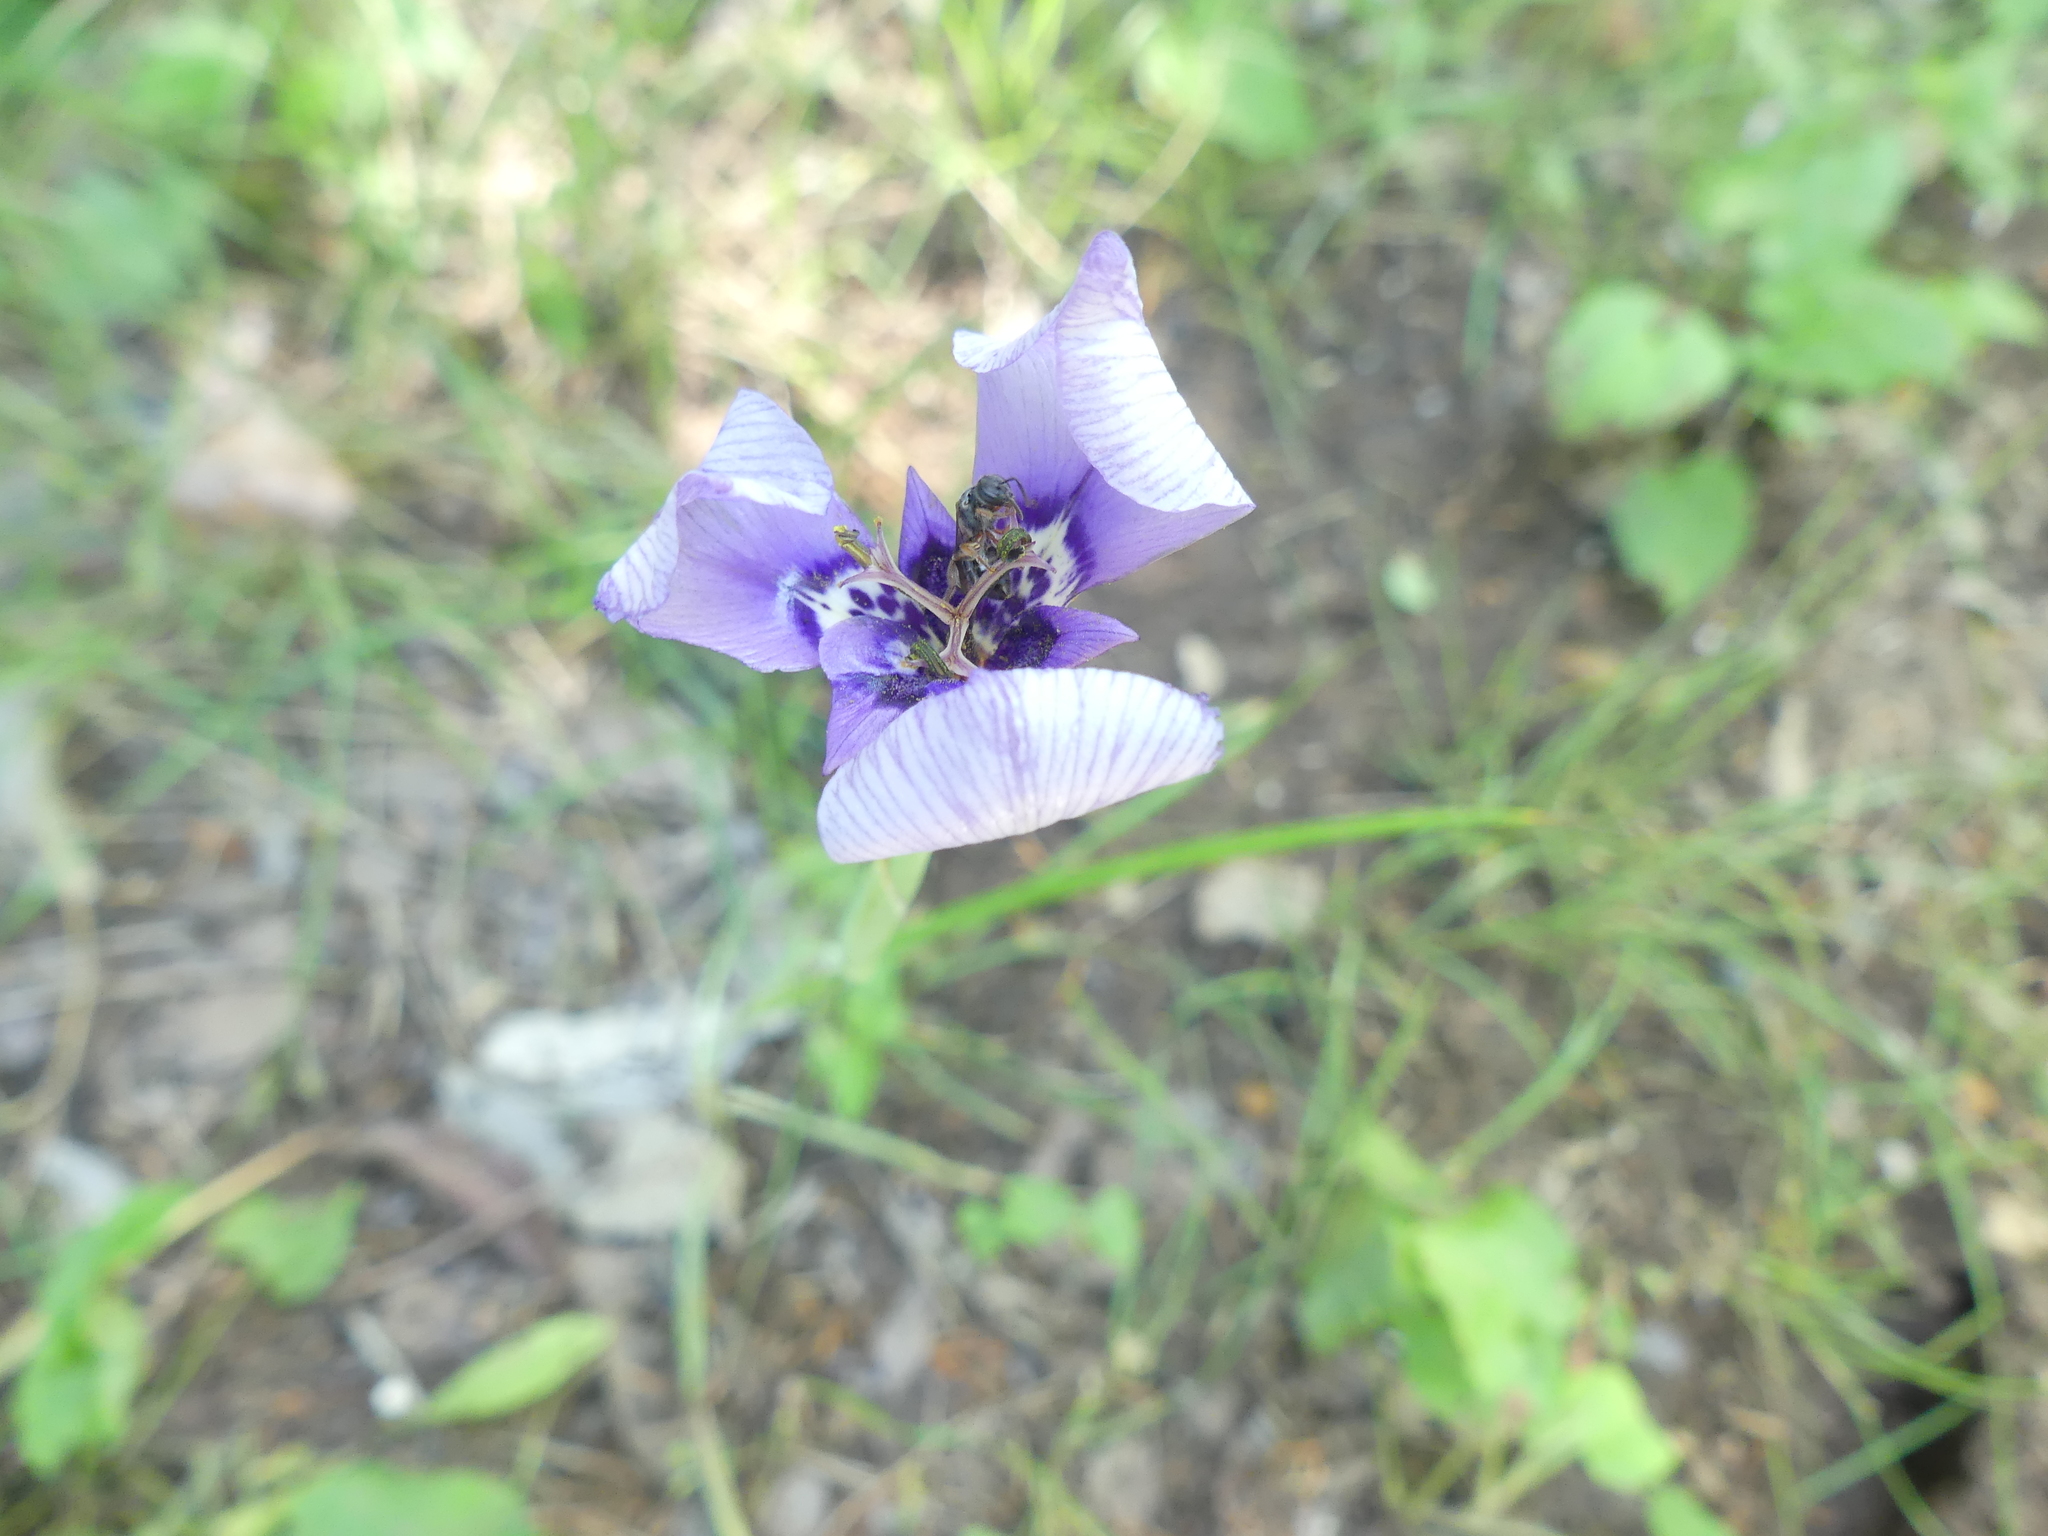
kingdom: Plantae
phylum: Tracheophyta
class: Liliopsida
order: Asparagales
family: Iridaceae
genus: Herbertia
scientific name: Herbertia lahue
